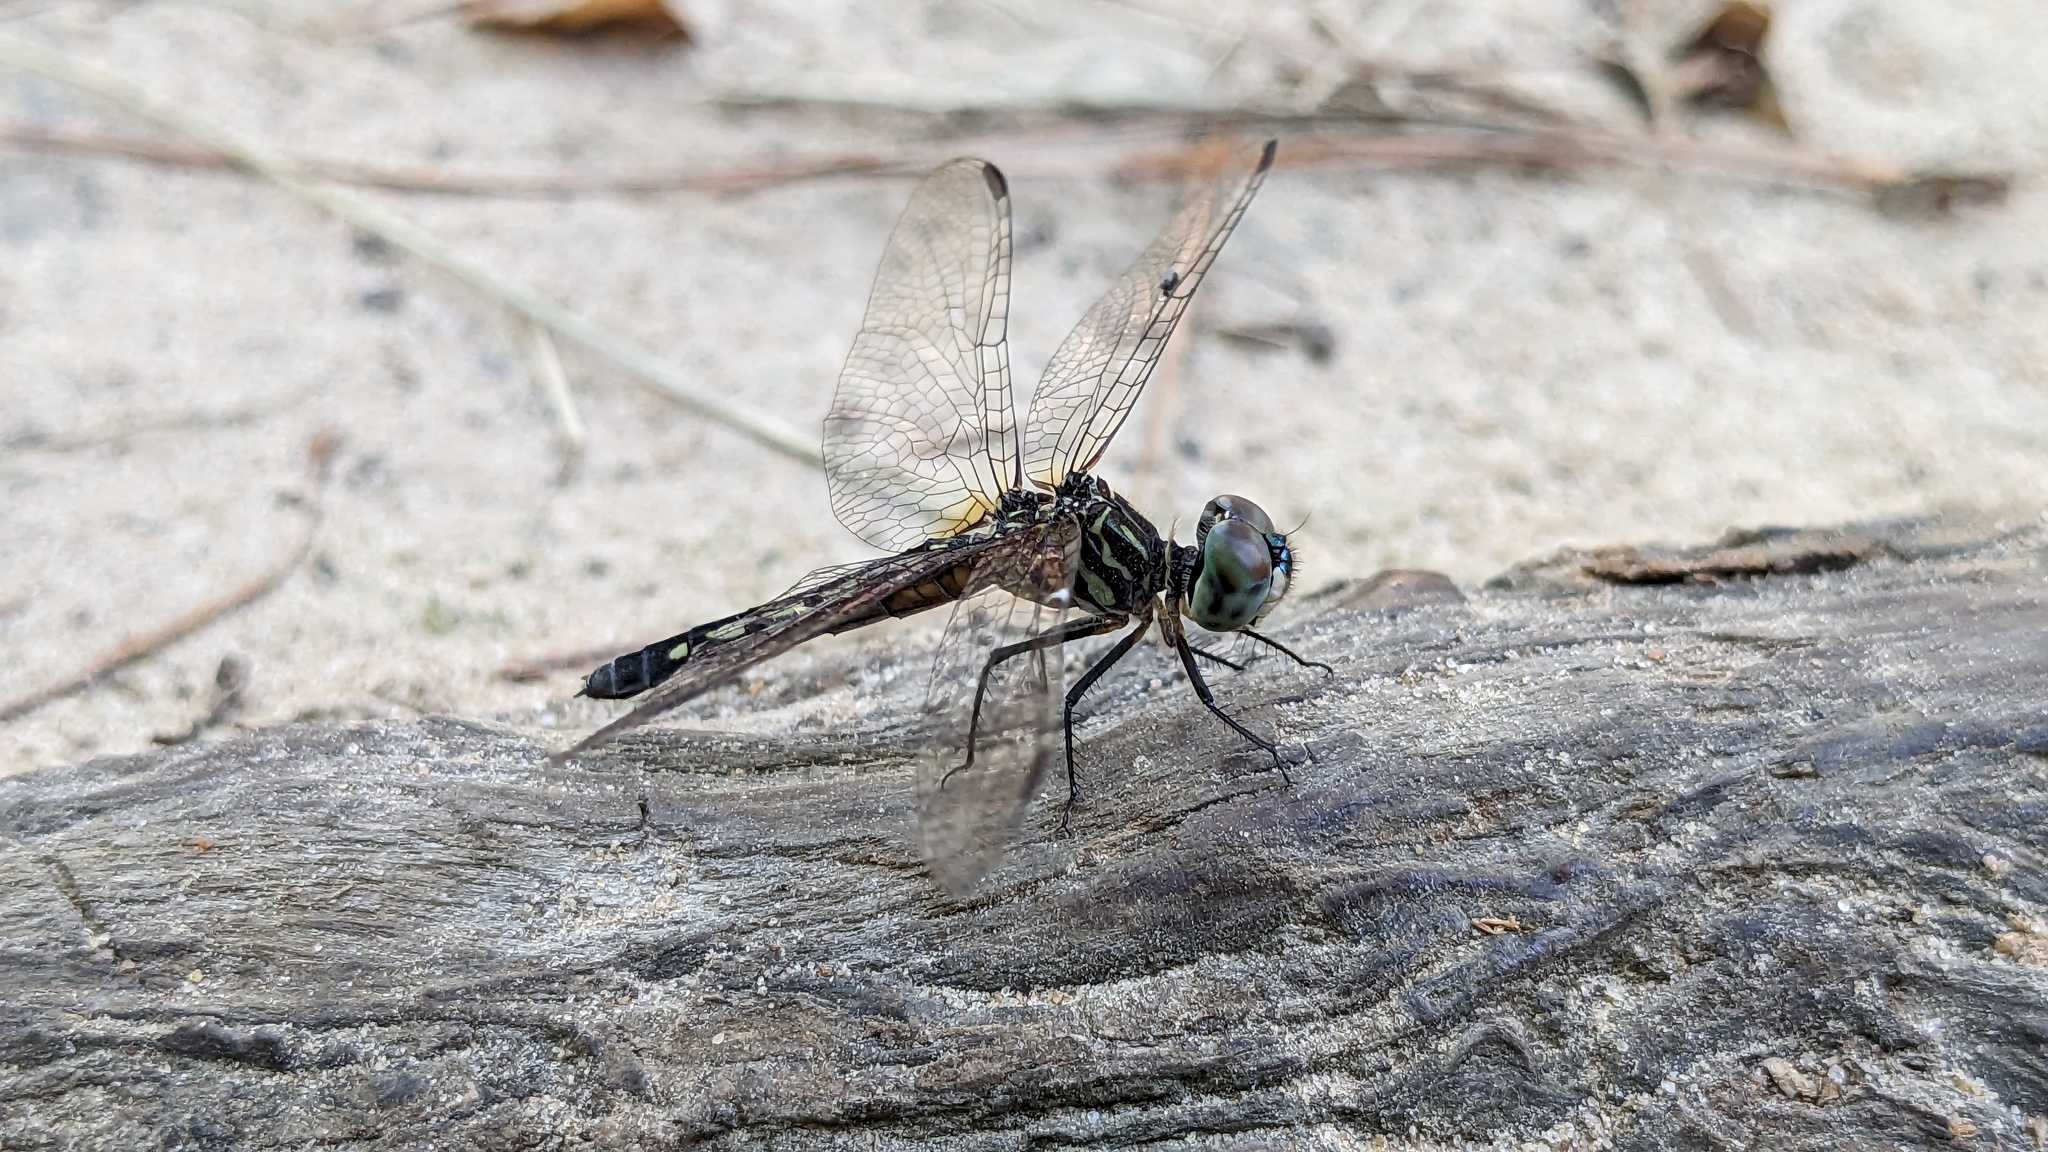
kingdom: Animalia
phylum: Arthropoda
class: Insecta
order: Odonata
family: Libellulidae
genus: Pachydiplax
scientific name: Pachydiplax longipennis
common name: Blue dasher
